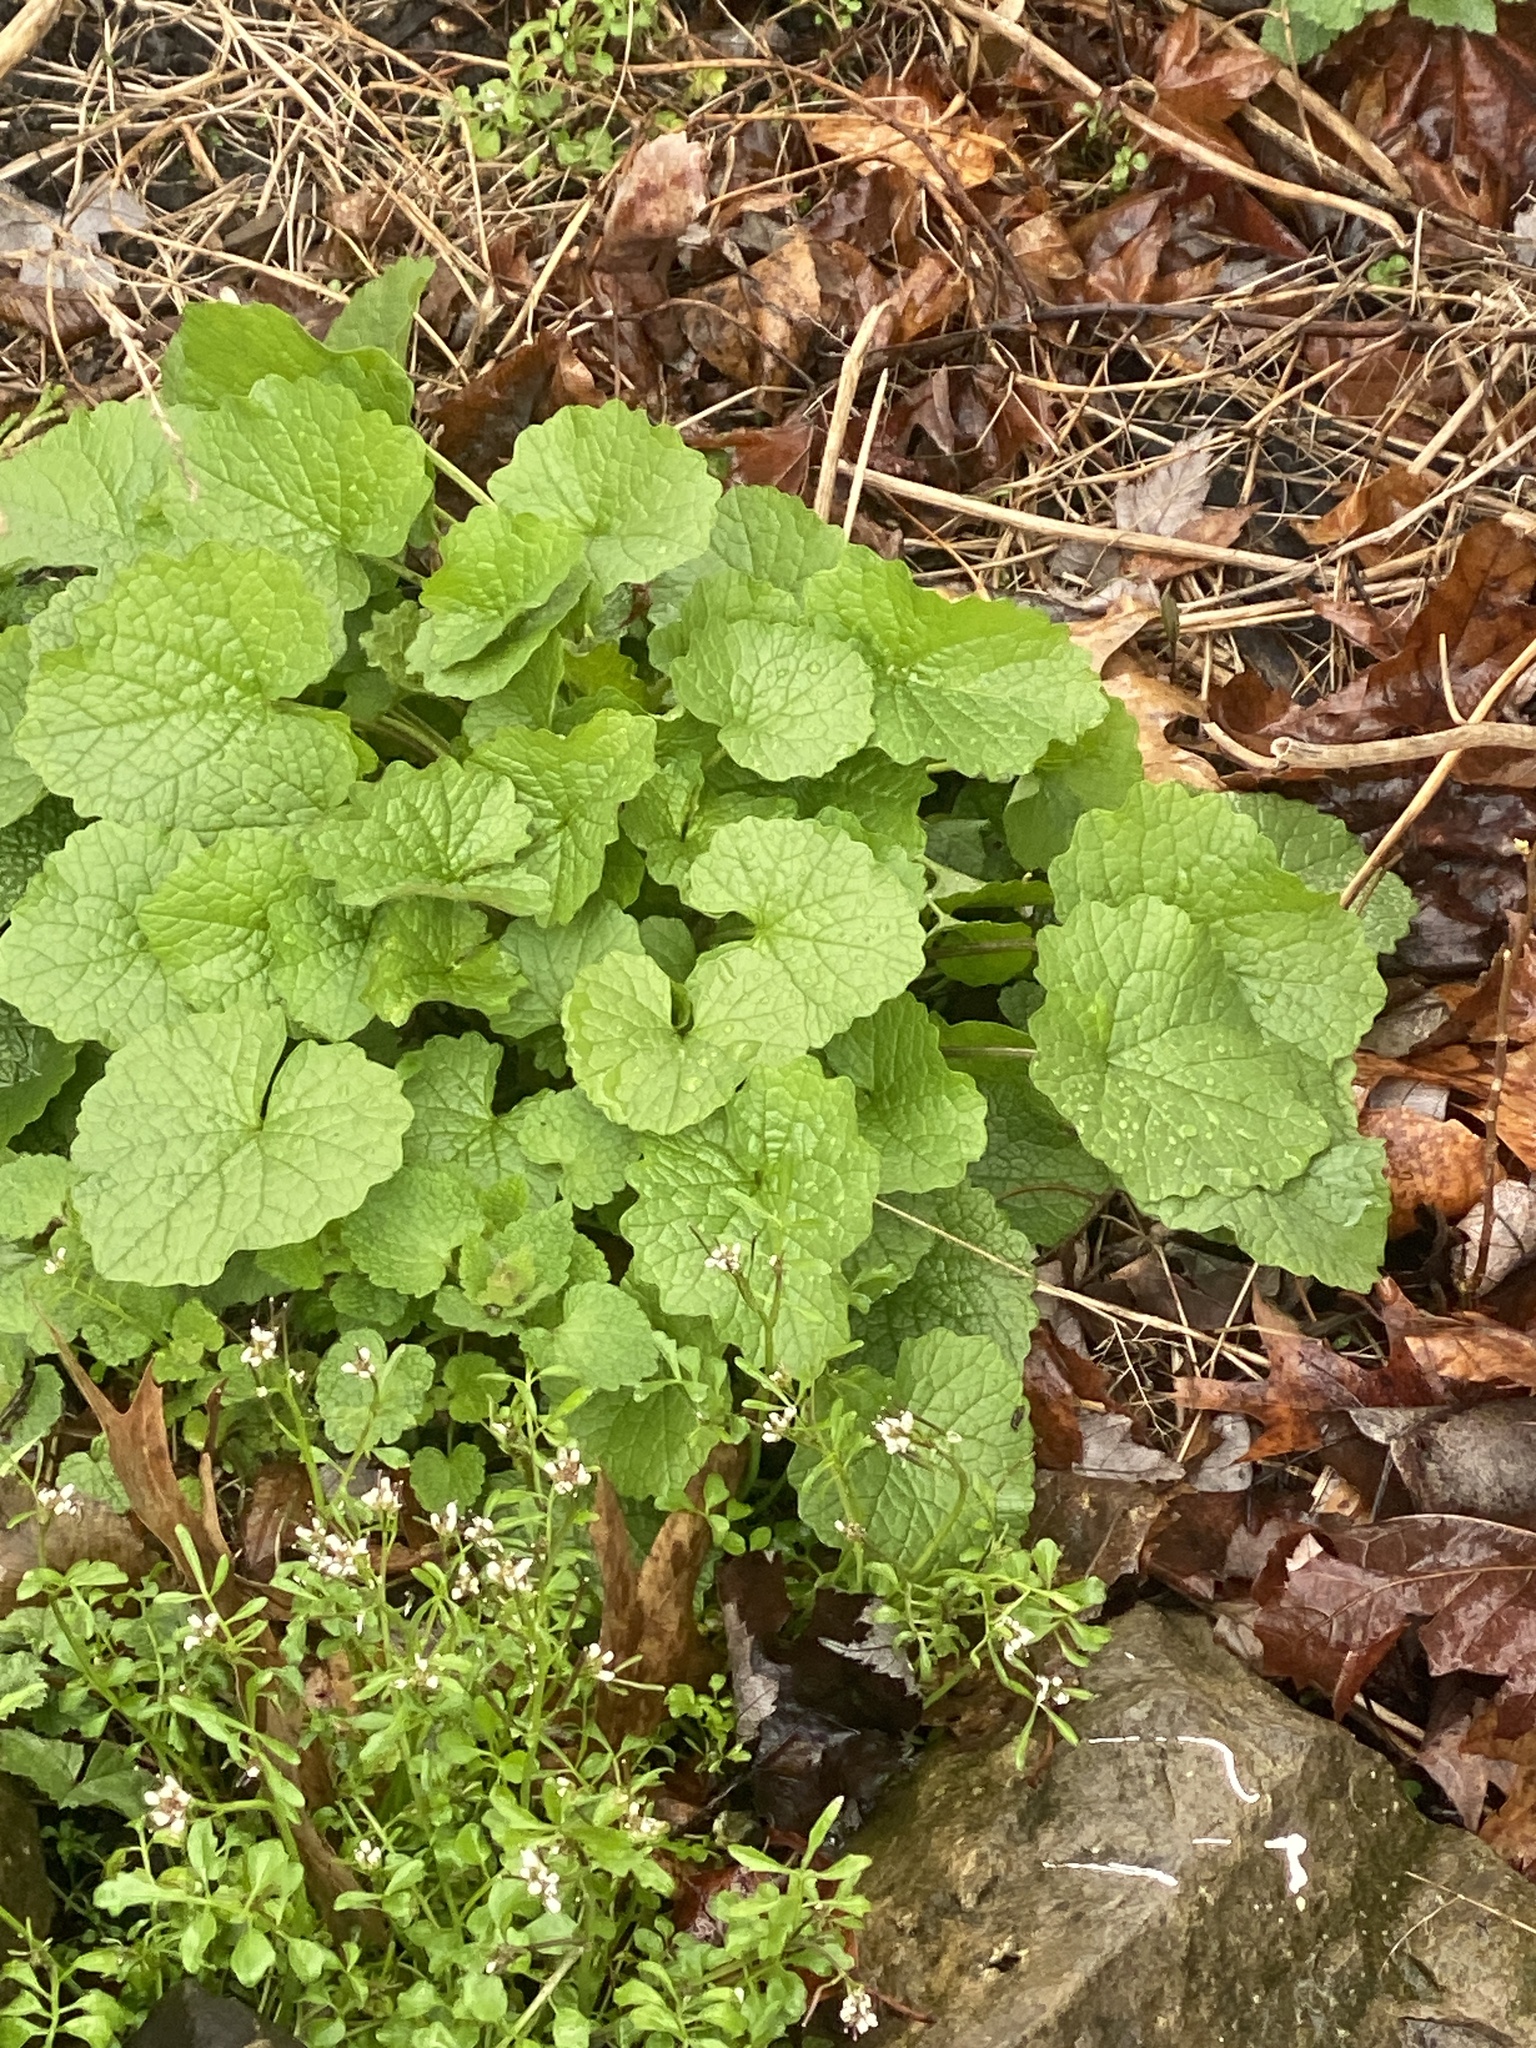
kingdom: Plantae
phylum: Tracheophyta
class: Magnoliopsida
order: Brassicales
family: Brassicaceae
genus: Alliaria
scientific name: Alliaria petiolata
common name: Garlic mustard
